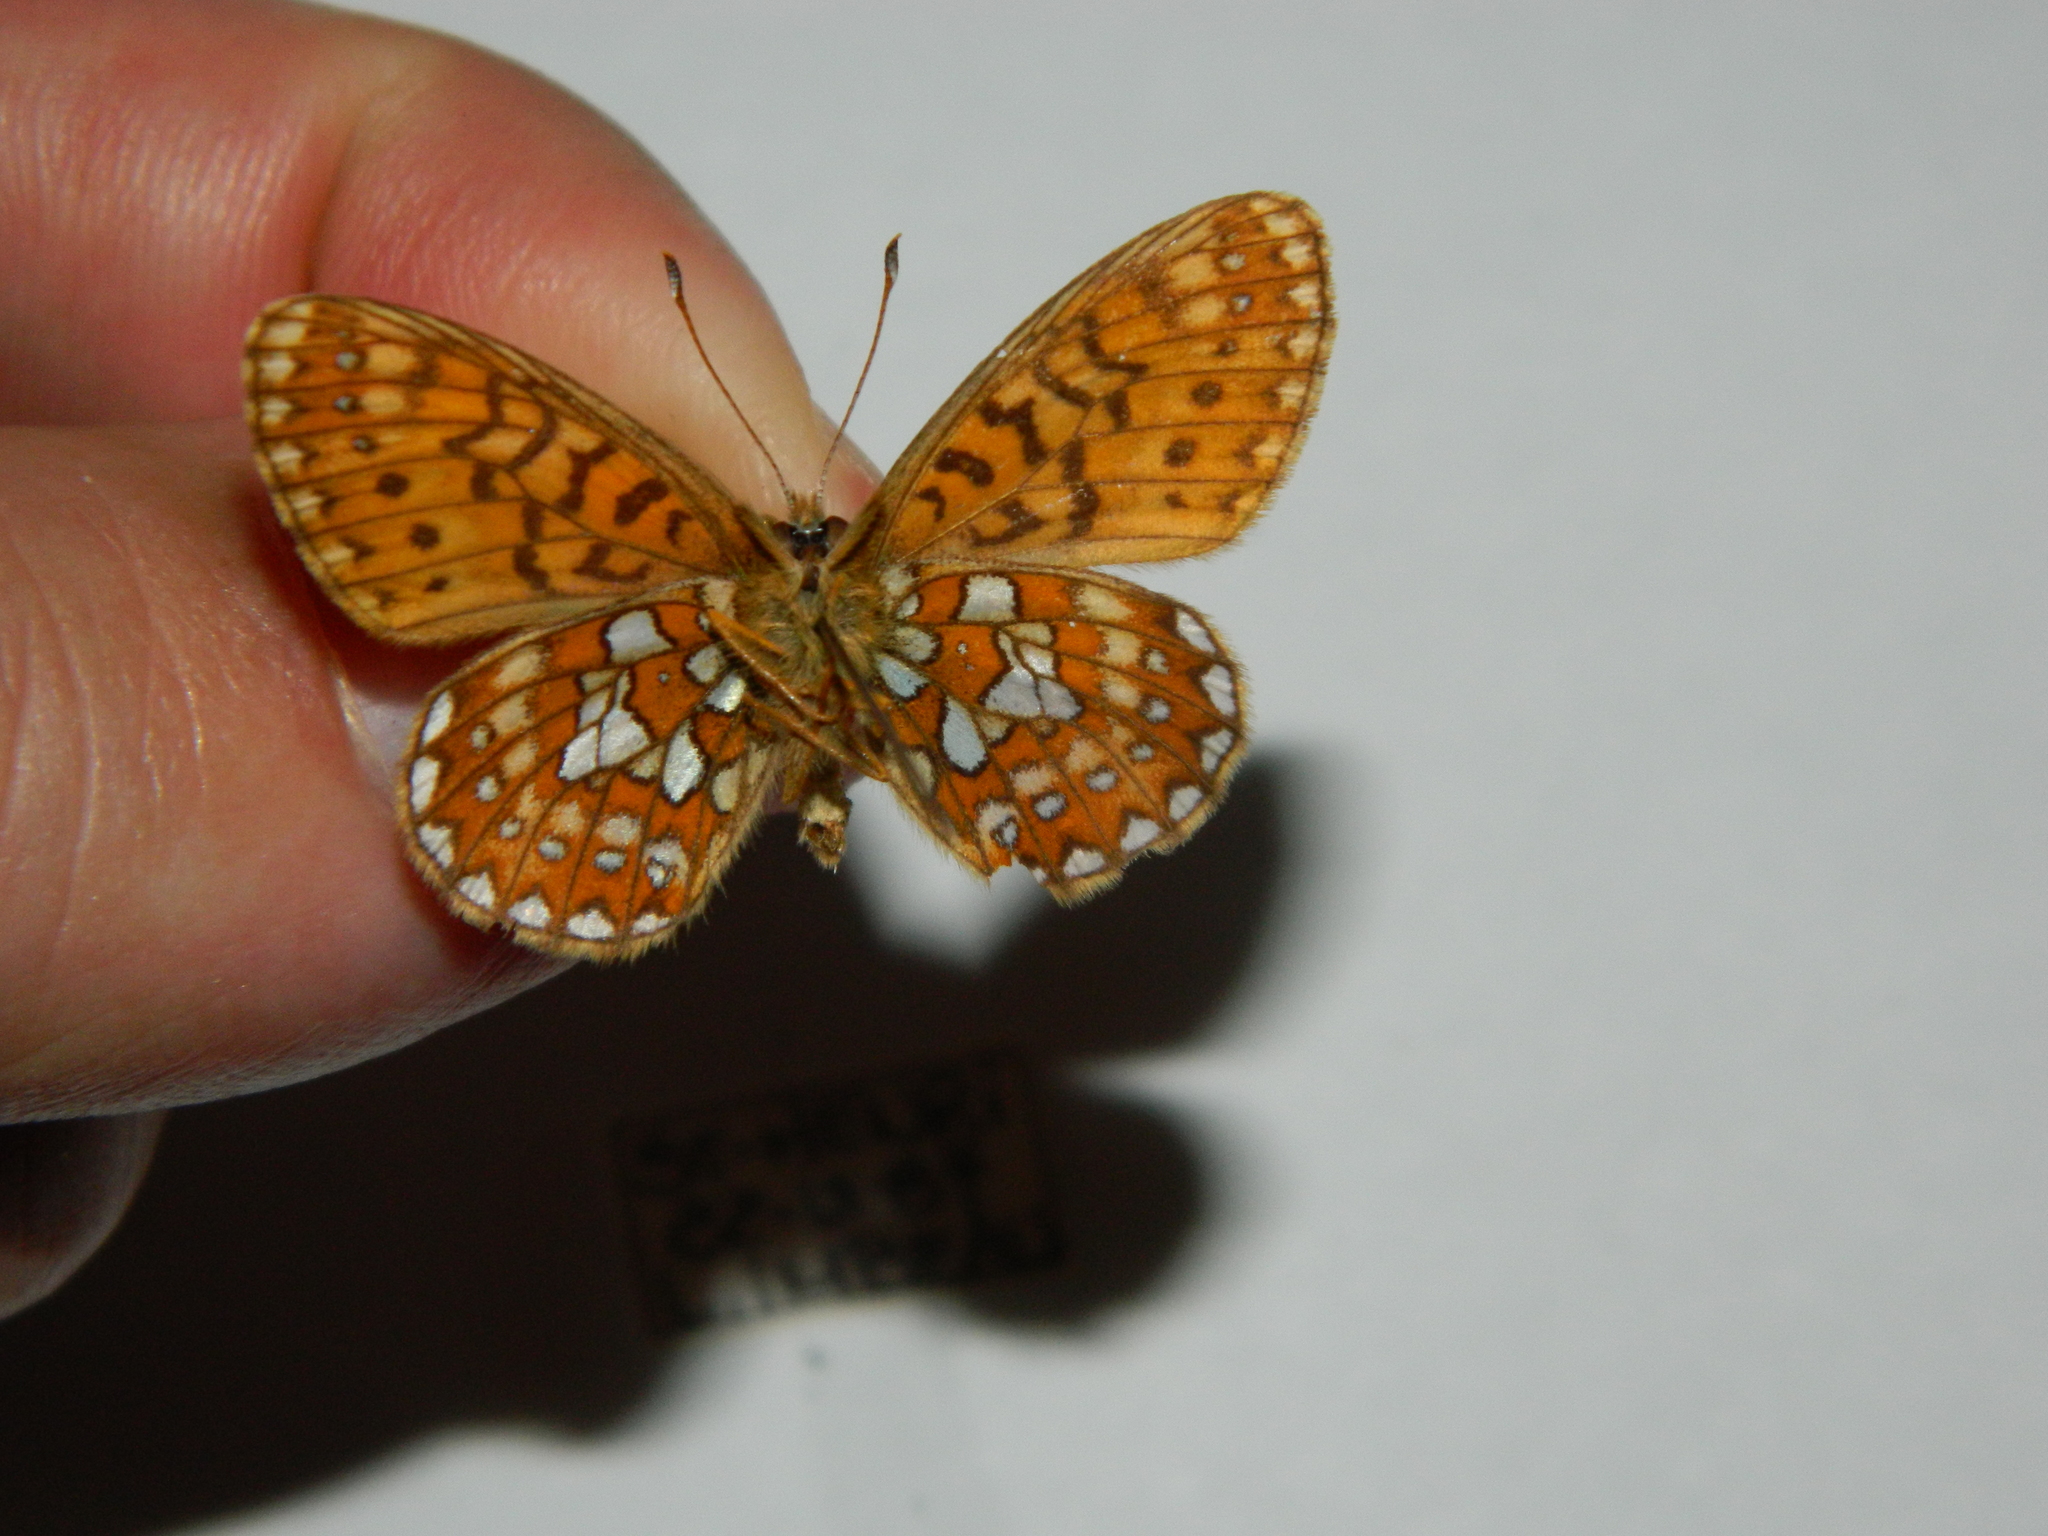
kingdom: Animalia
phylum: Arthropoda
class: Insecta
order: Lepidoptera
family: Nymphalidae
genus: Boloria
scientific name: Boloria eunomia
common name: Bog fritillary
